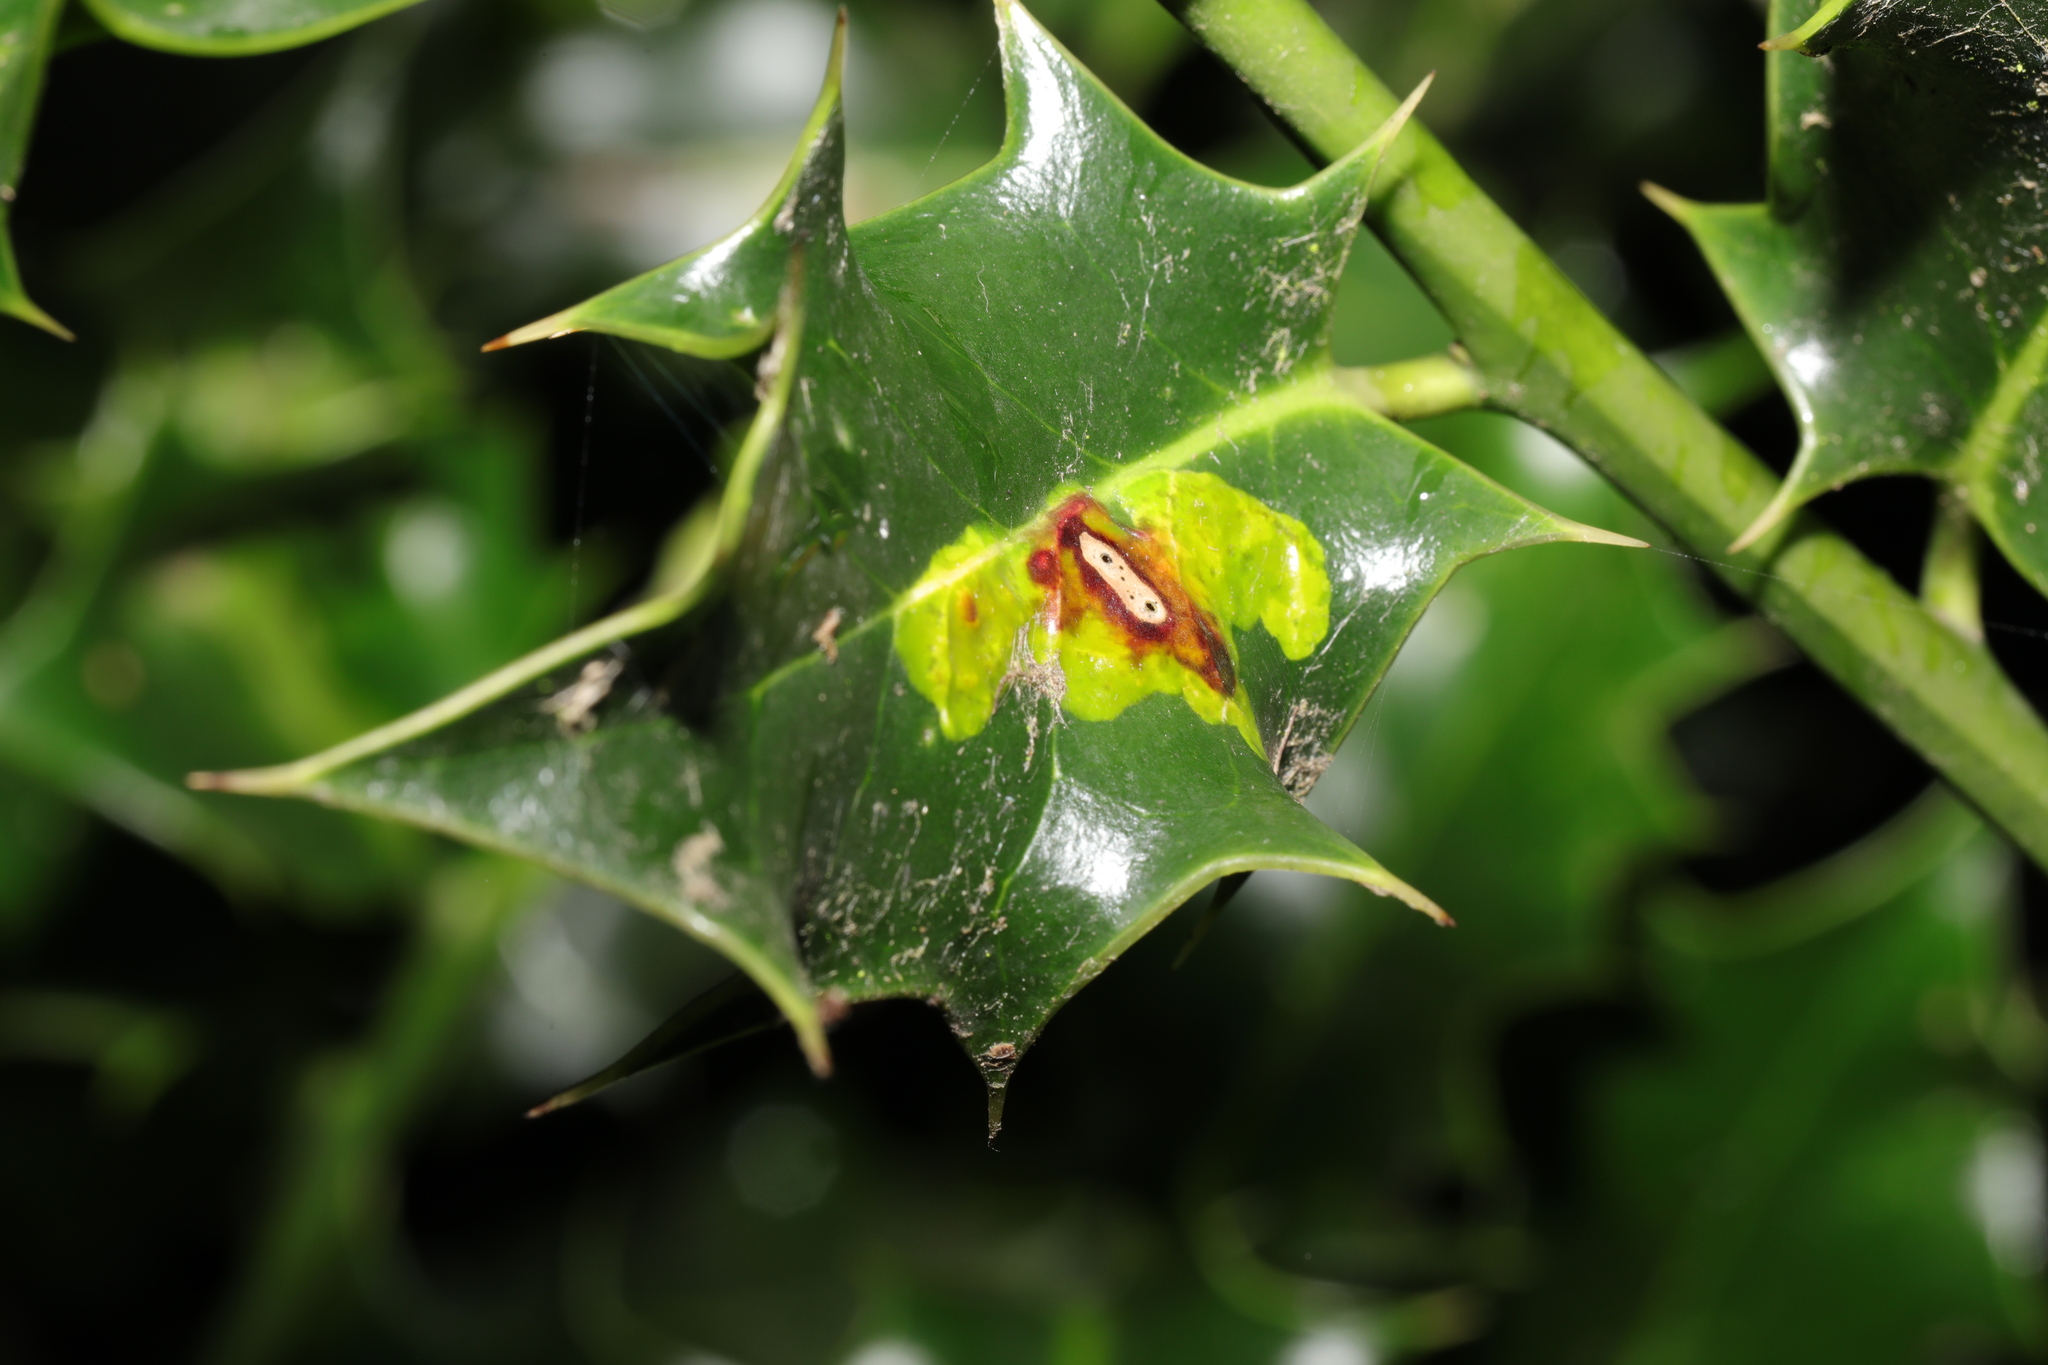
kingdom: Animalia
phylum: Arthropoda
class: Insecta
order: Diptera
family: Agromyzidae
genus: Phytomyza
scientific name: Phytomyza ilicis
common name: Holly leafminer
